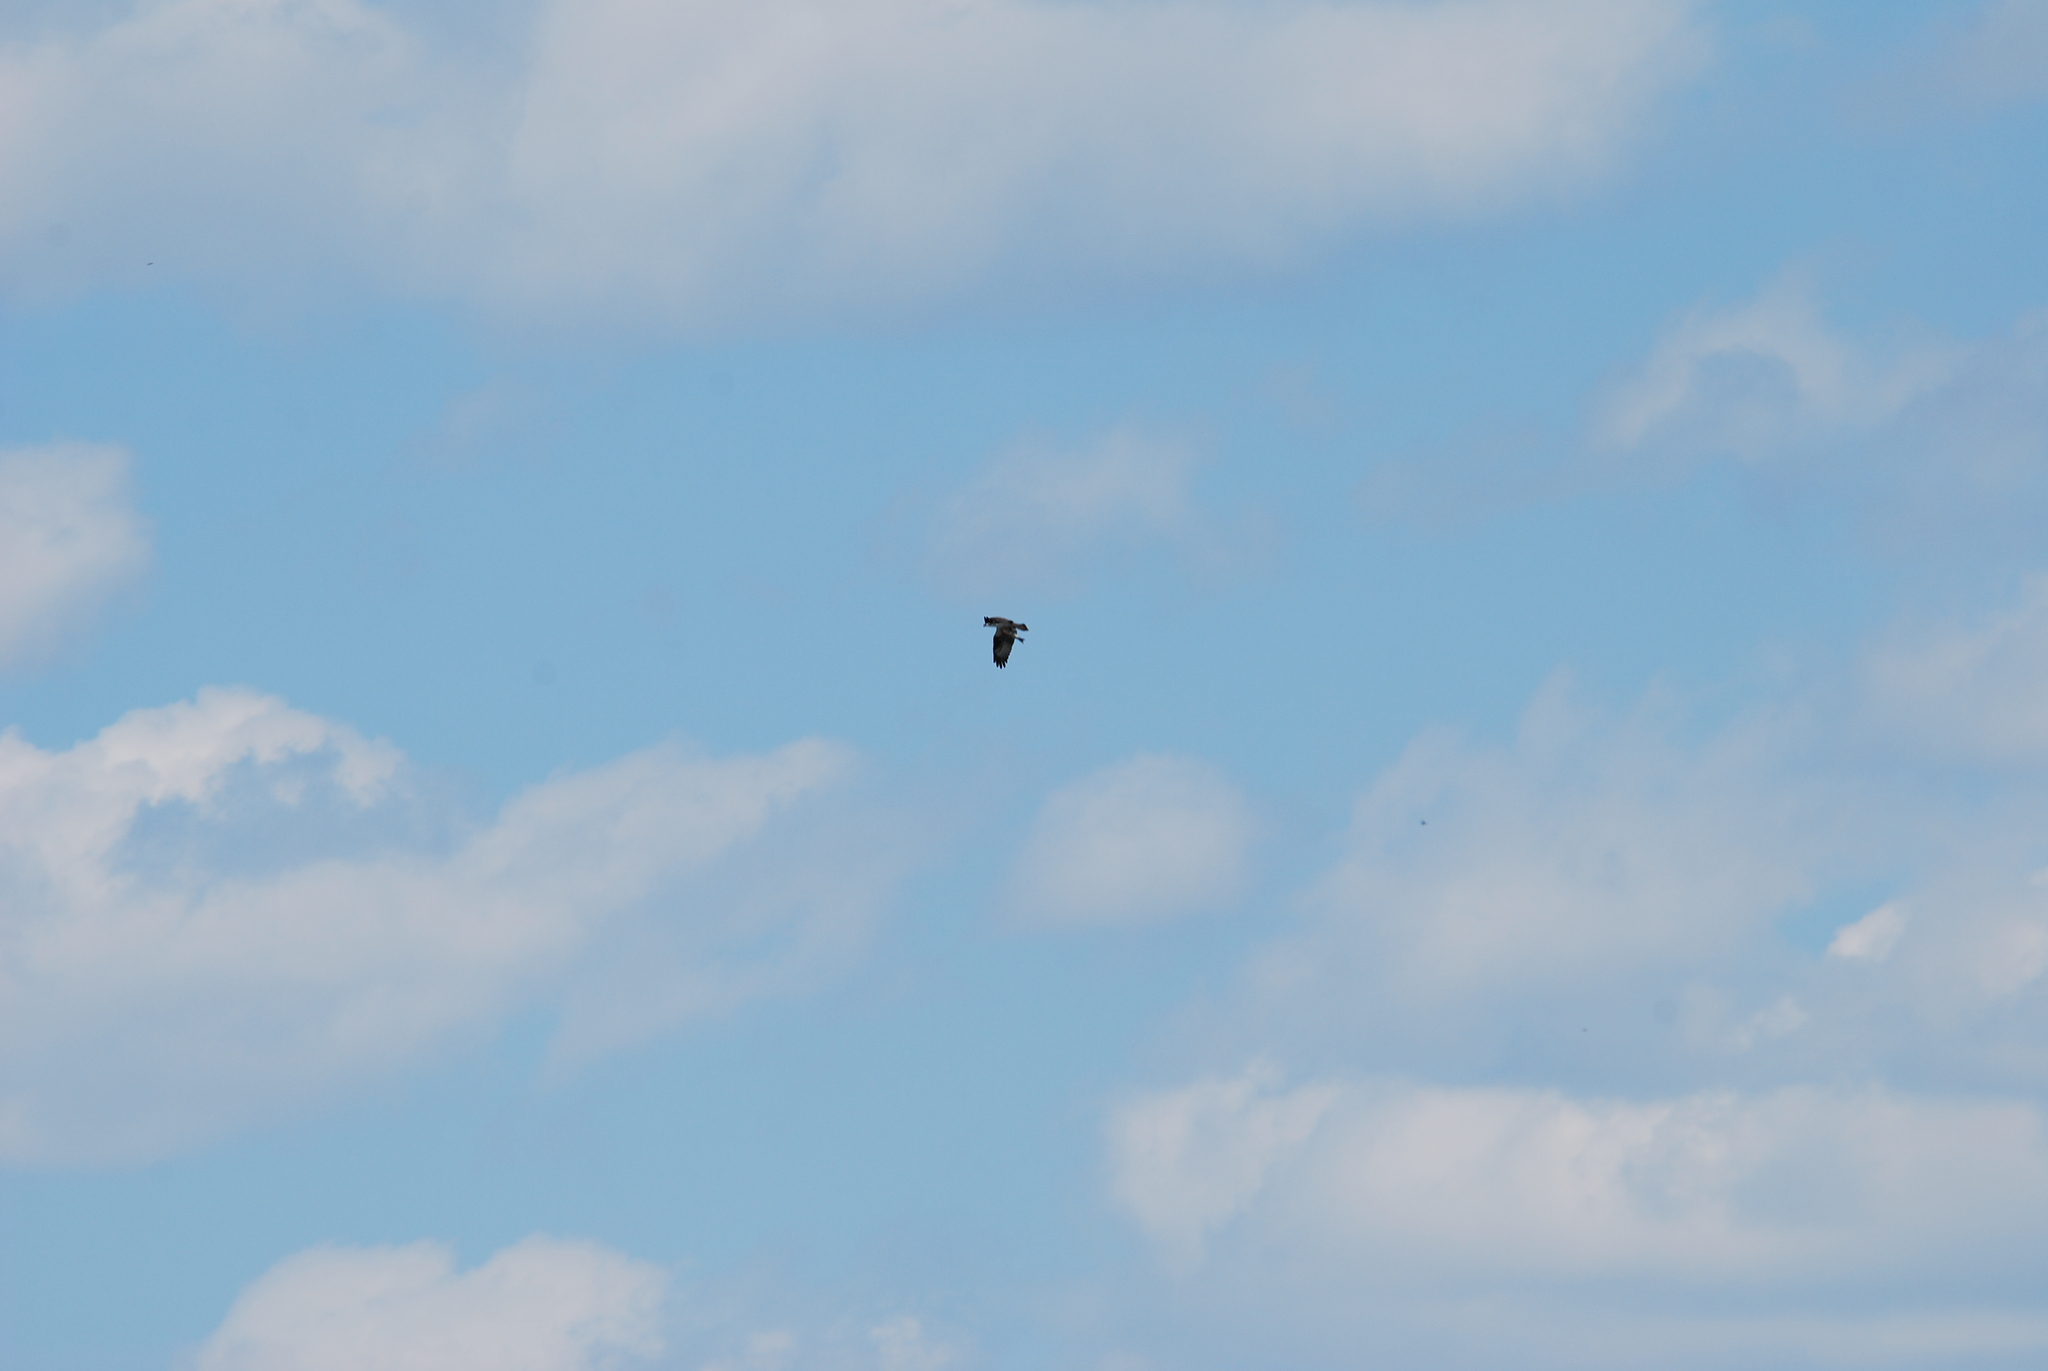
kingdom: Animalia
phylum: Chordata
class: Aves
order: Accipitriformes
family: Pandionidae
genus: Pandion
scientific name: Pandion haliaetus
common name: Osprey
